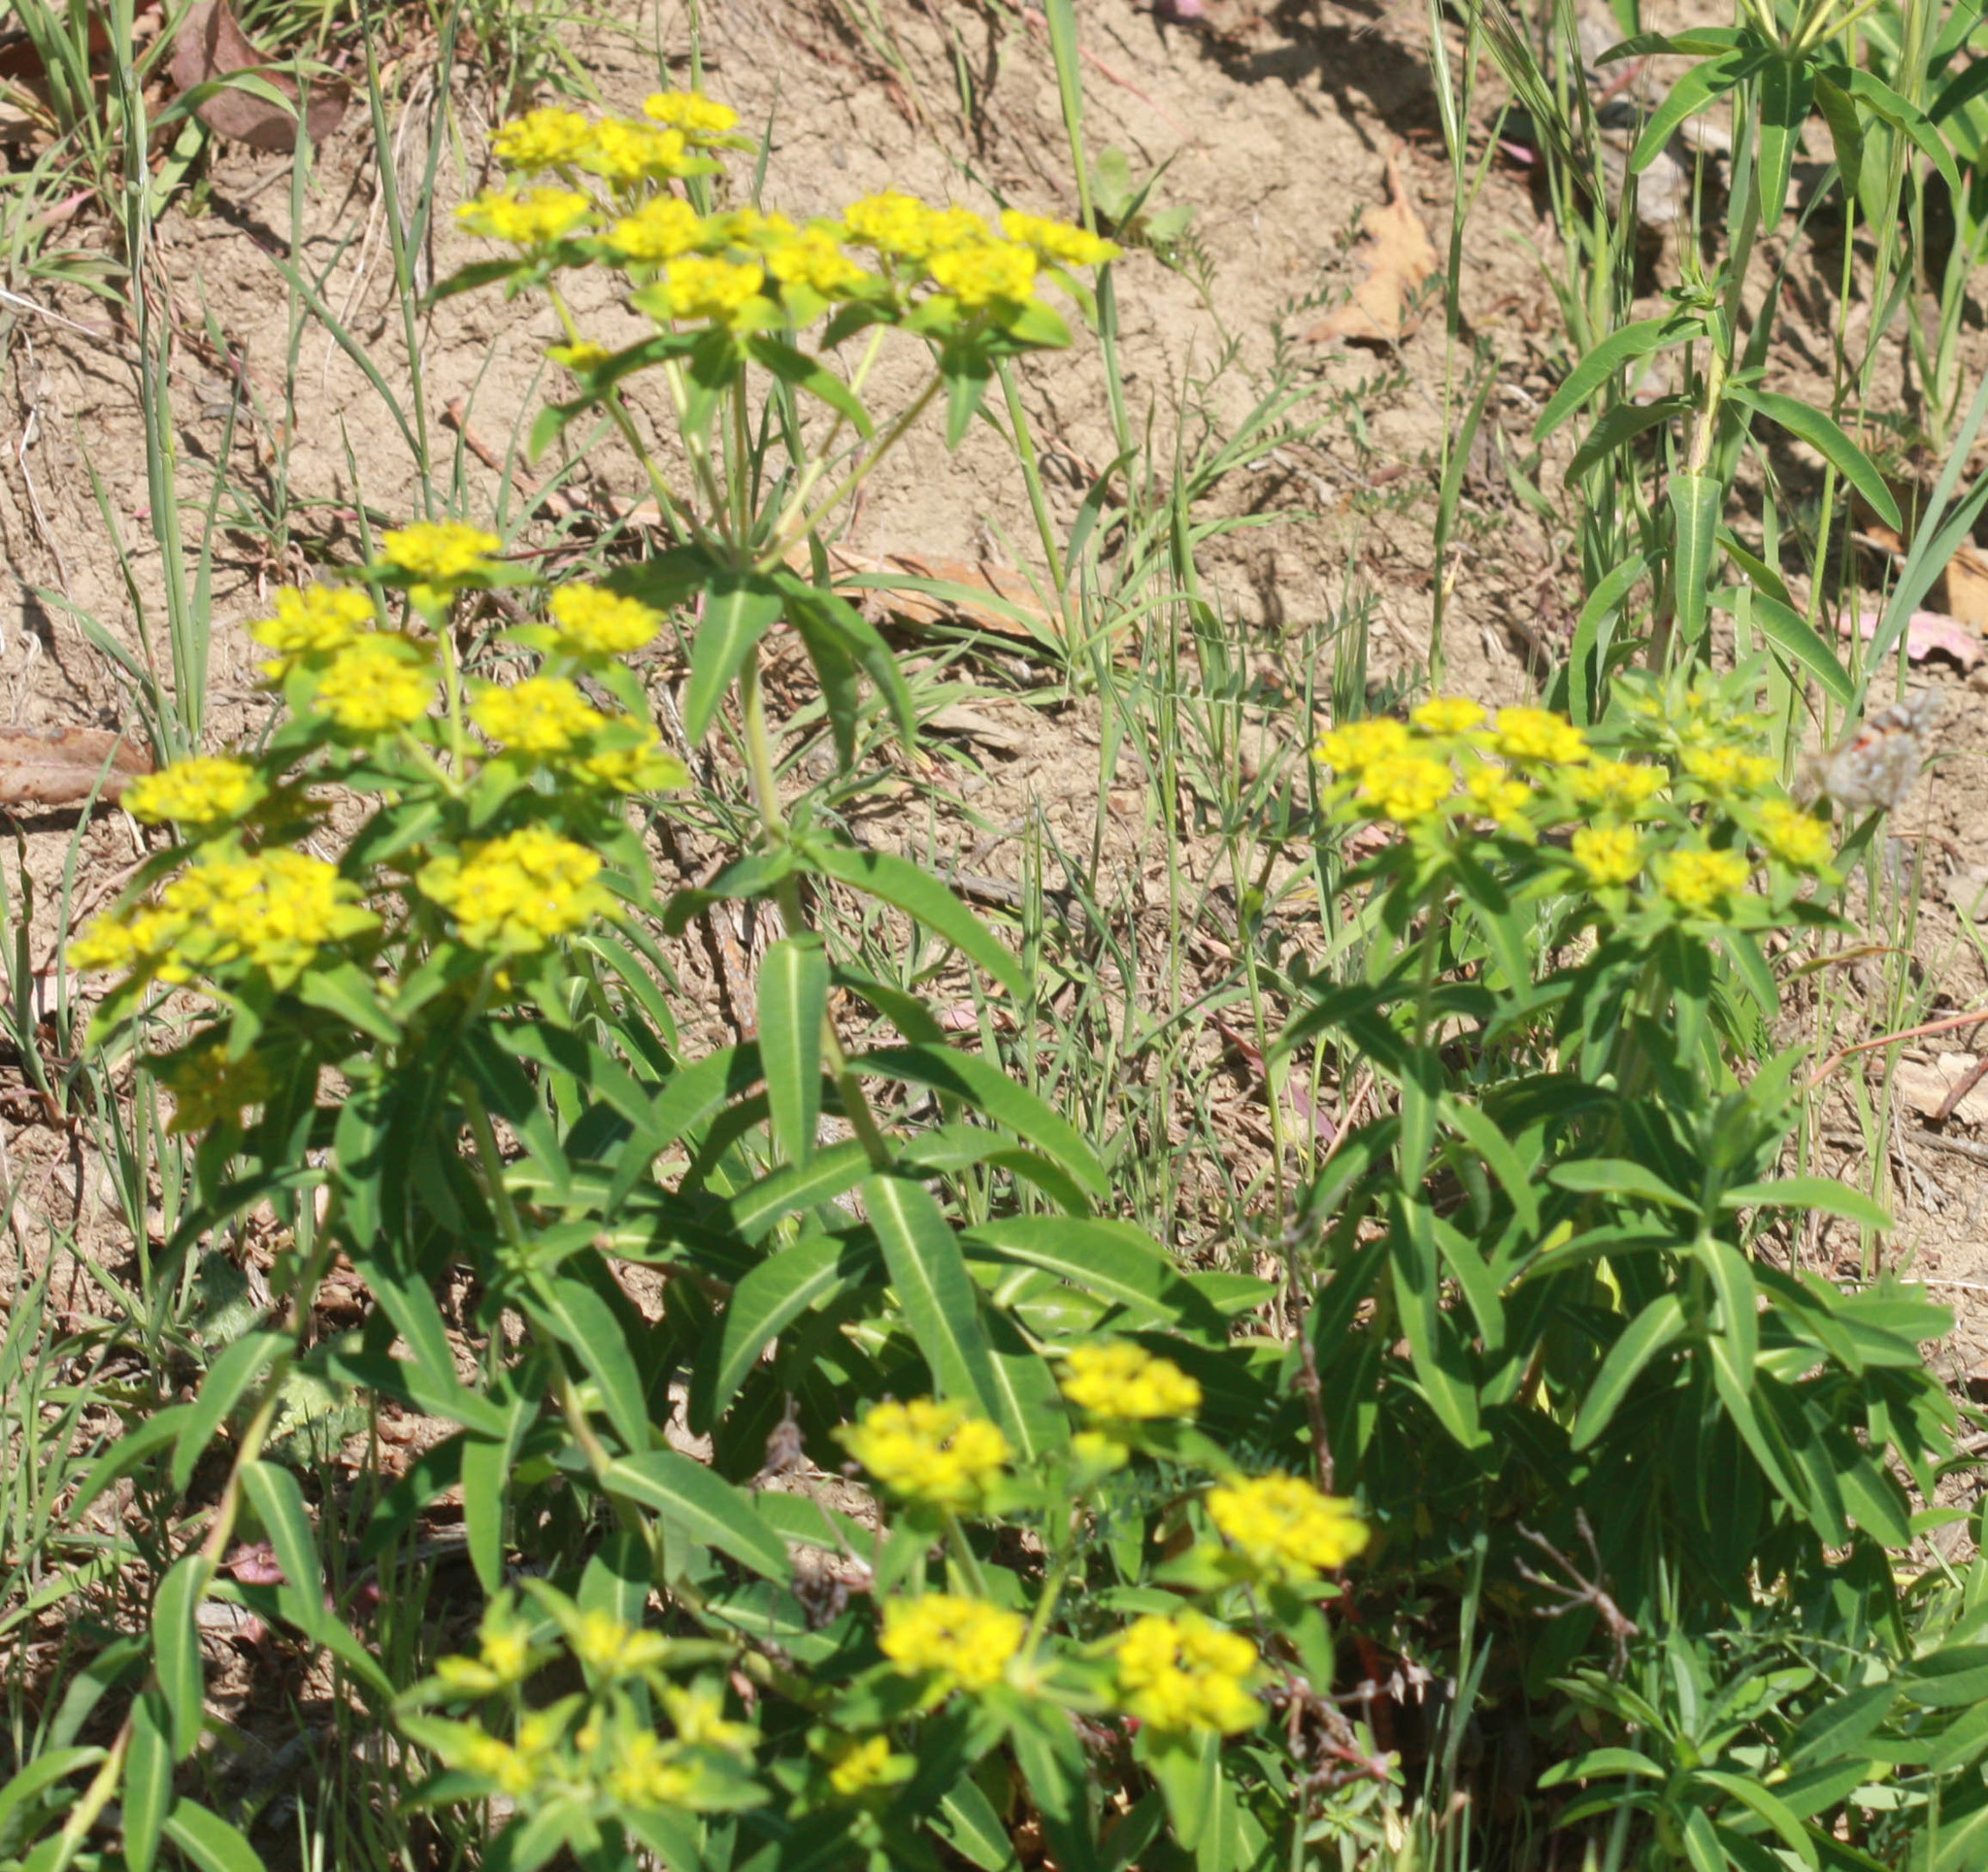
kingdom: Plantae
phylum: Tracheophyta
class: Magnoliopsida
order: Malpighiales
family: Euphorbiaceae
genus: Euphorbia
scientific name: Euphorbia oblongata
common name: Balkan spurge
